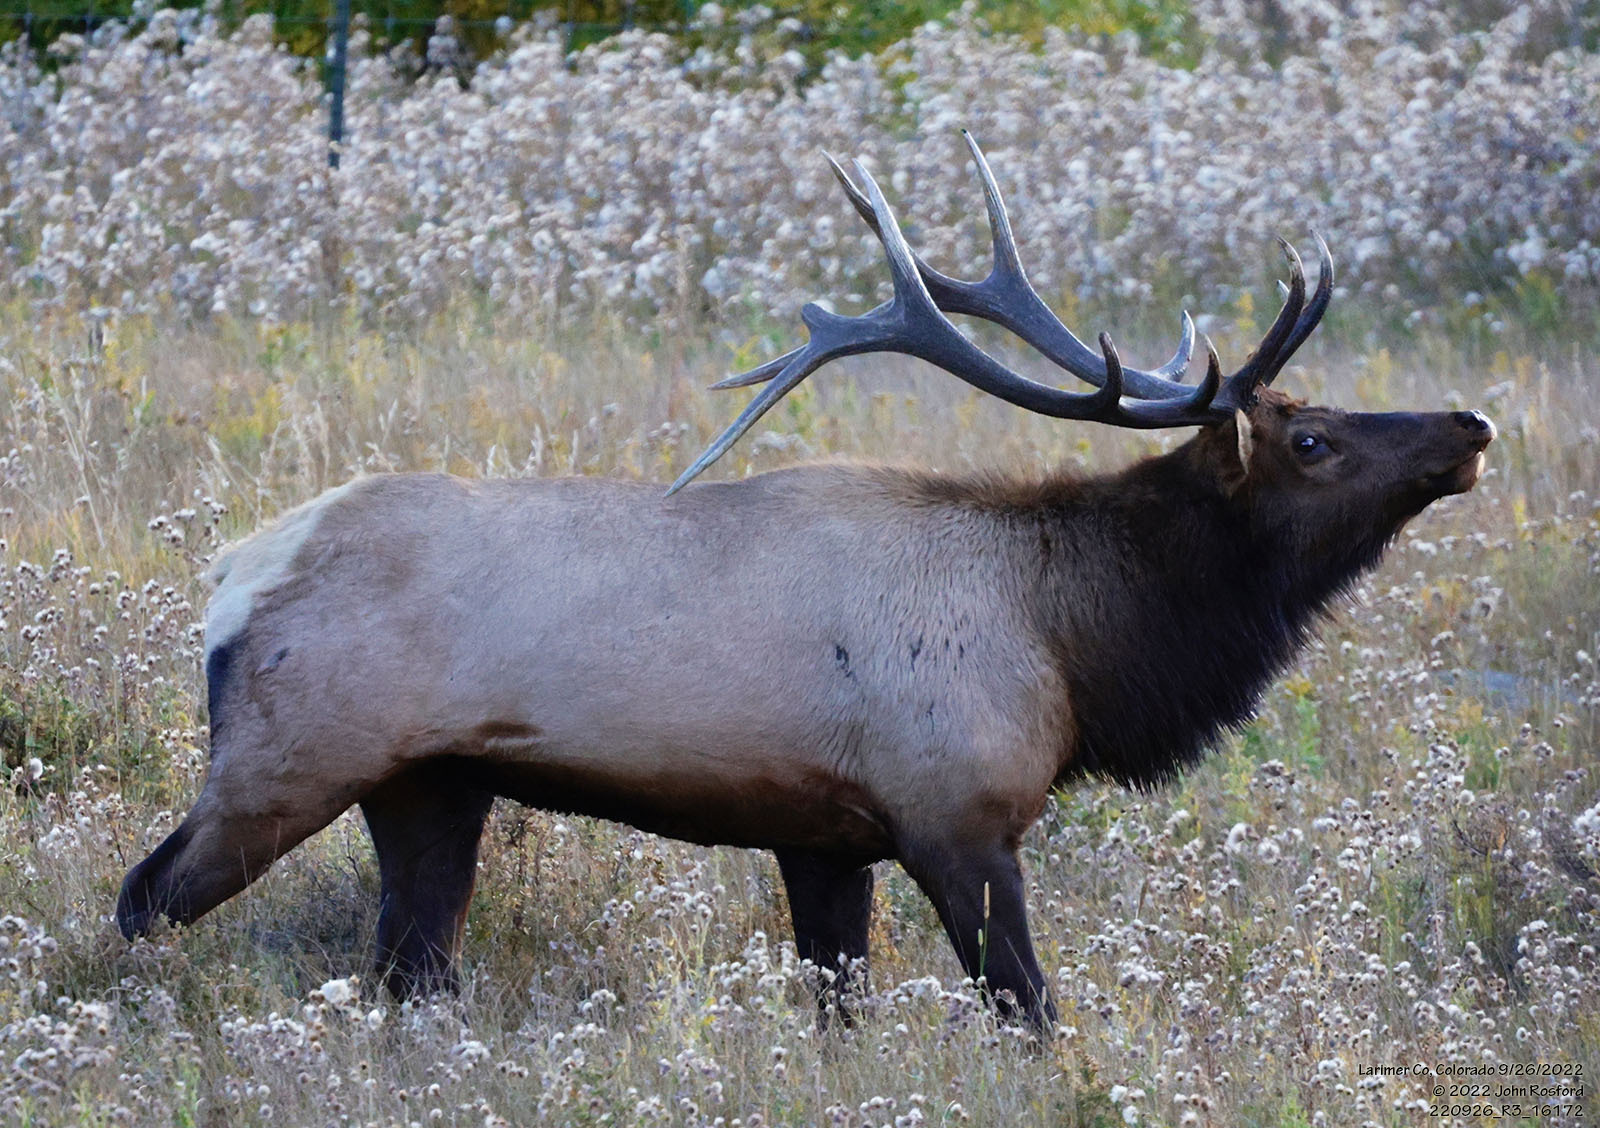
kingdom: Animalia
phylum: Chordata
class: Mammalia
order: Artiodactyla
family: Cervidae
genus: Cervus
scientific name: Cervus elaphus
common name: Red deer
